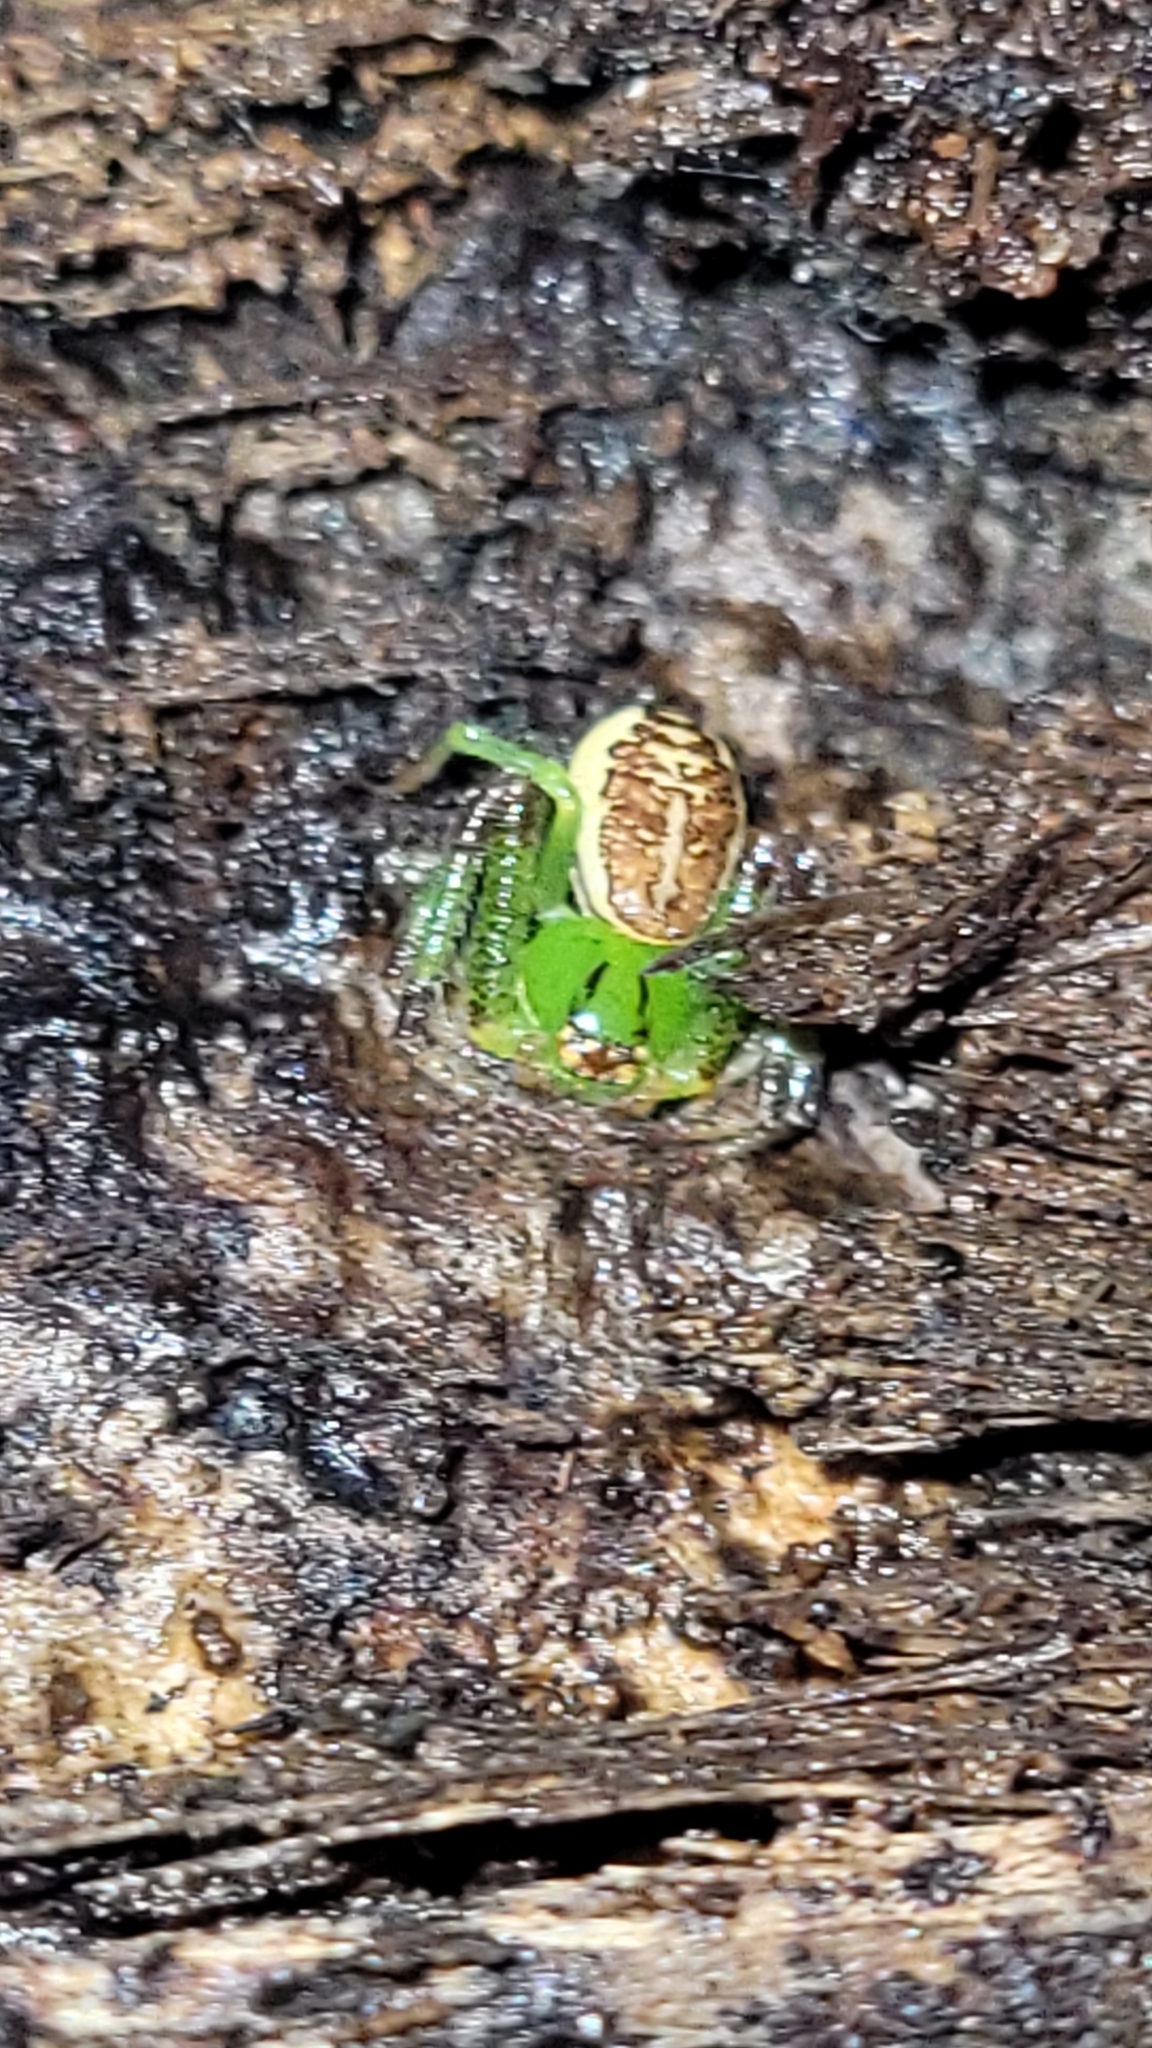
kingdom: Animalia
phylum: Arthropoda
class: Arachnida
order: Araneae
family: Thomisidae
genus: Diaea
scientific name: Diaea dorsata
